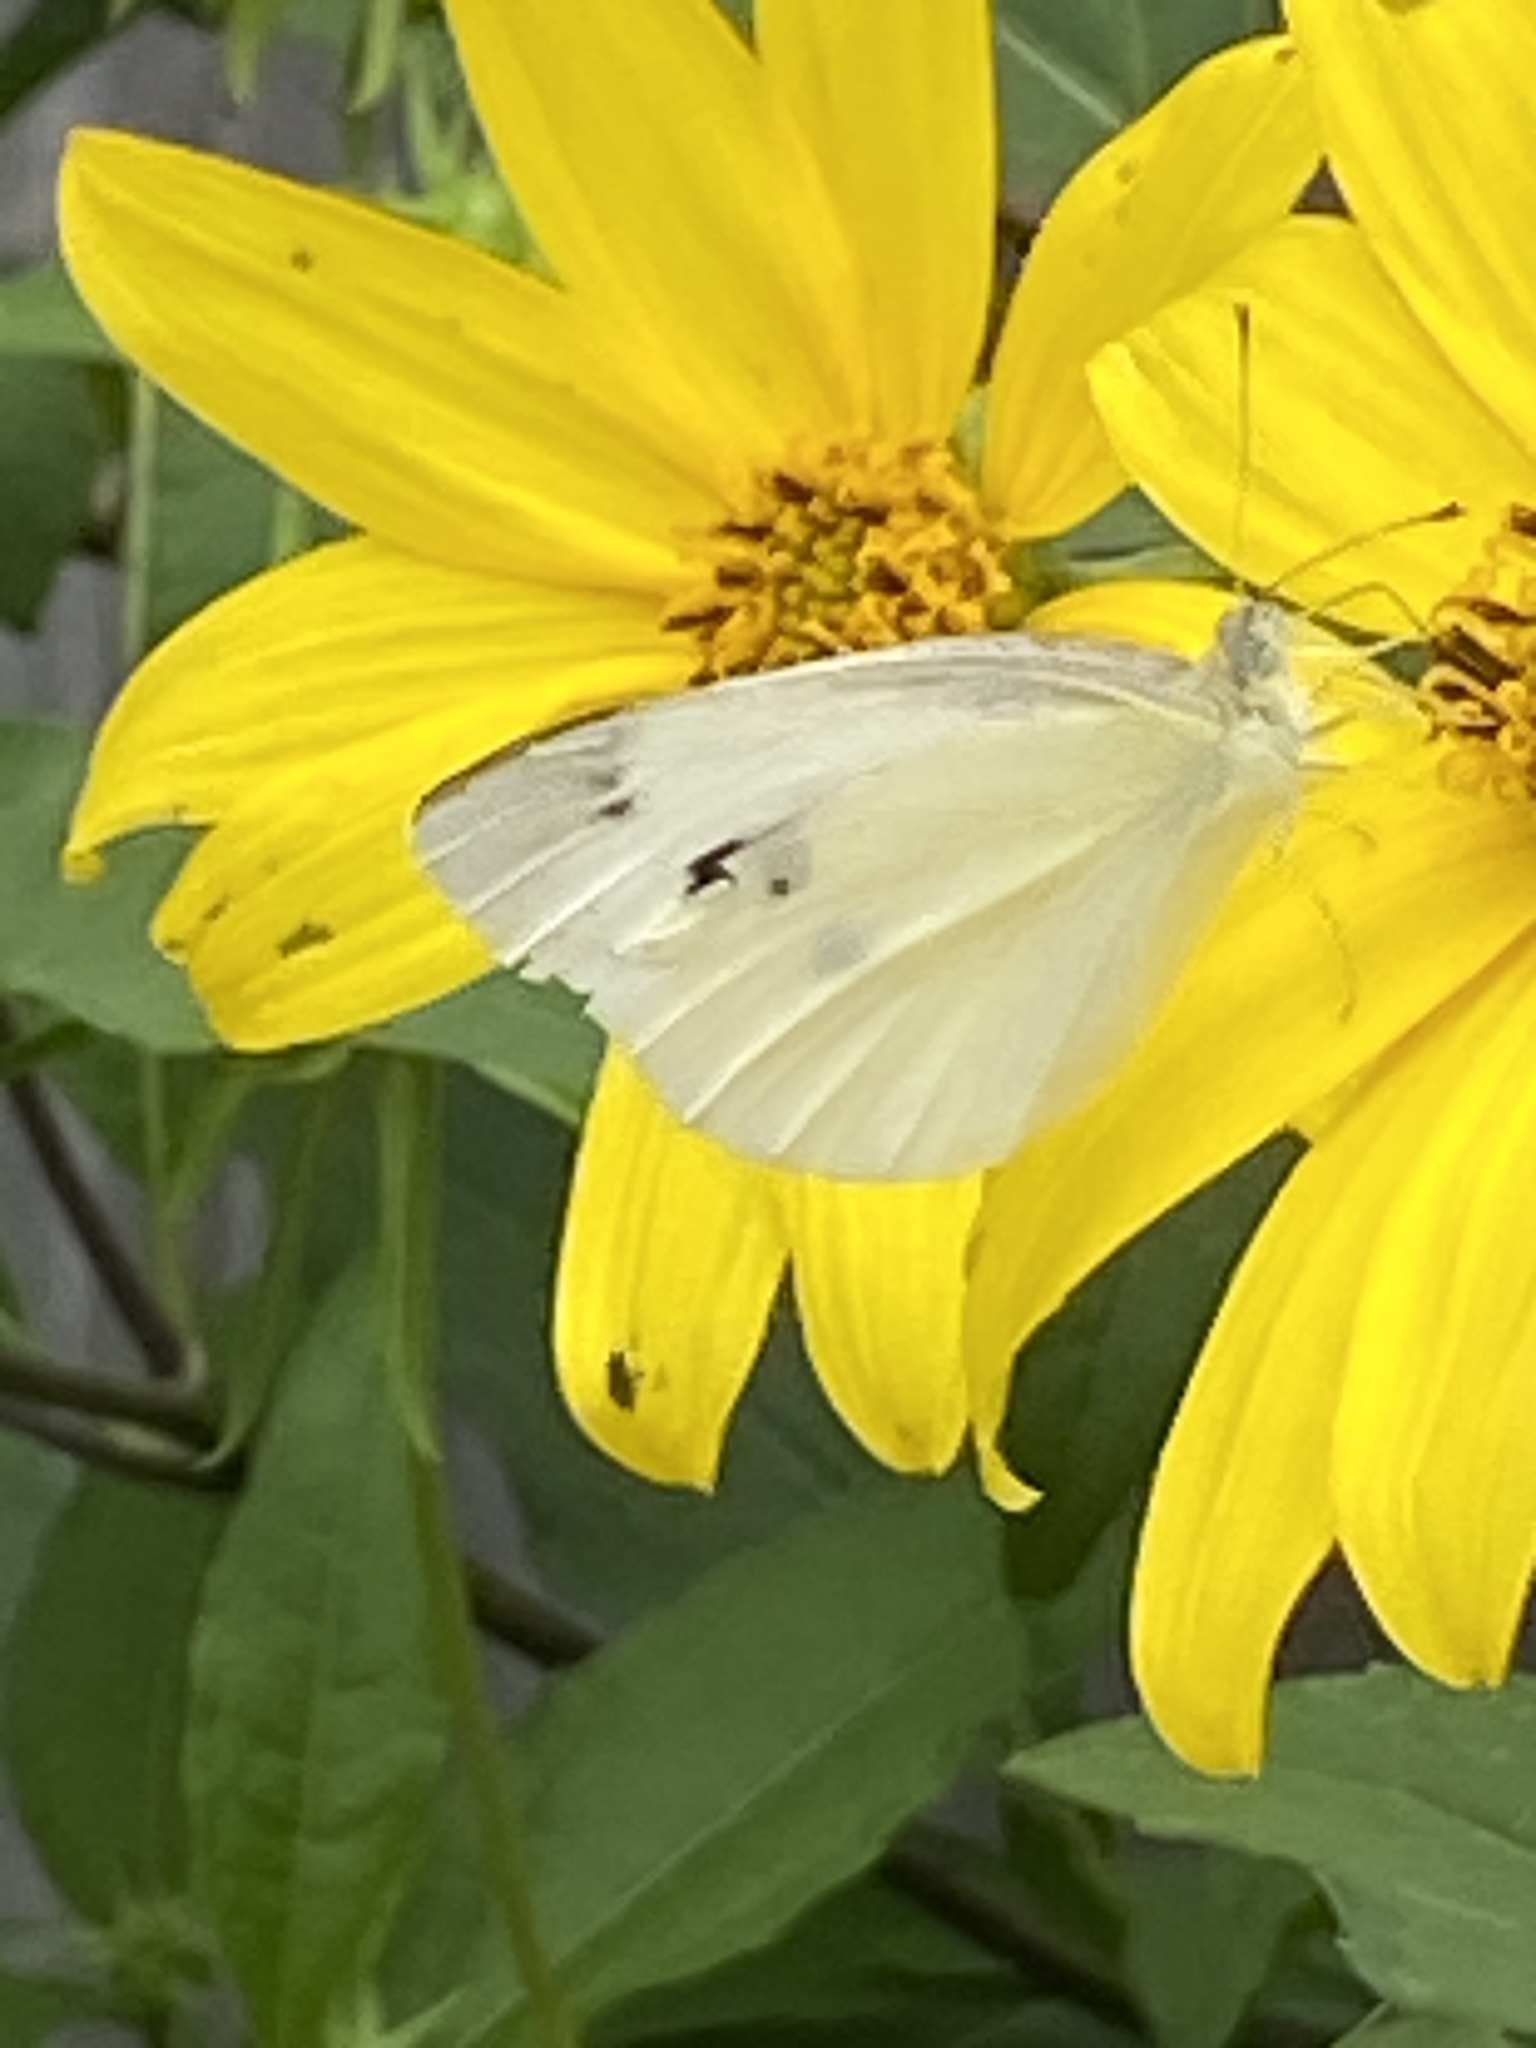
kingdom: Animalia
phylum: Arthropoda
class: Insecta
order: Lepidoptera
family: Pieridae
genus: Pieris
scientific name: Pieris rapae
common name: Small white
